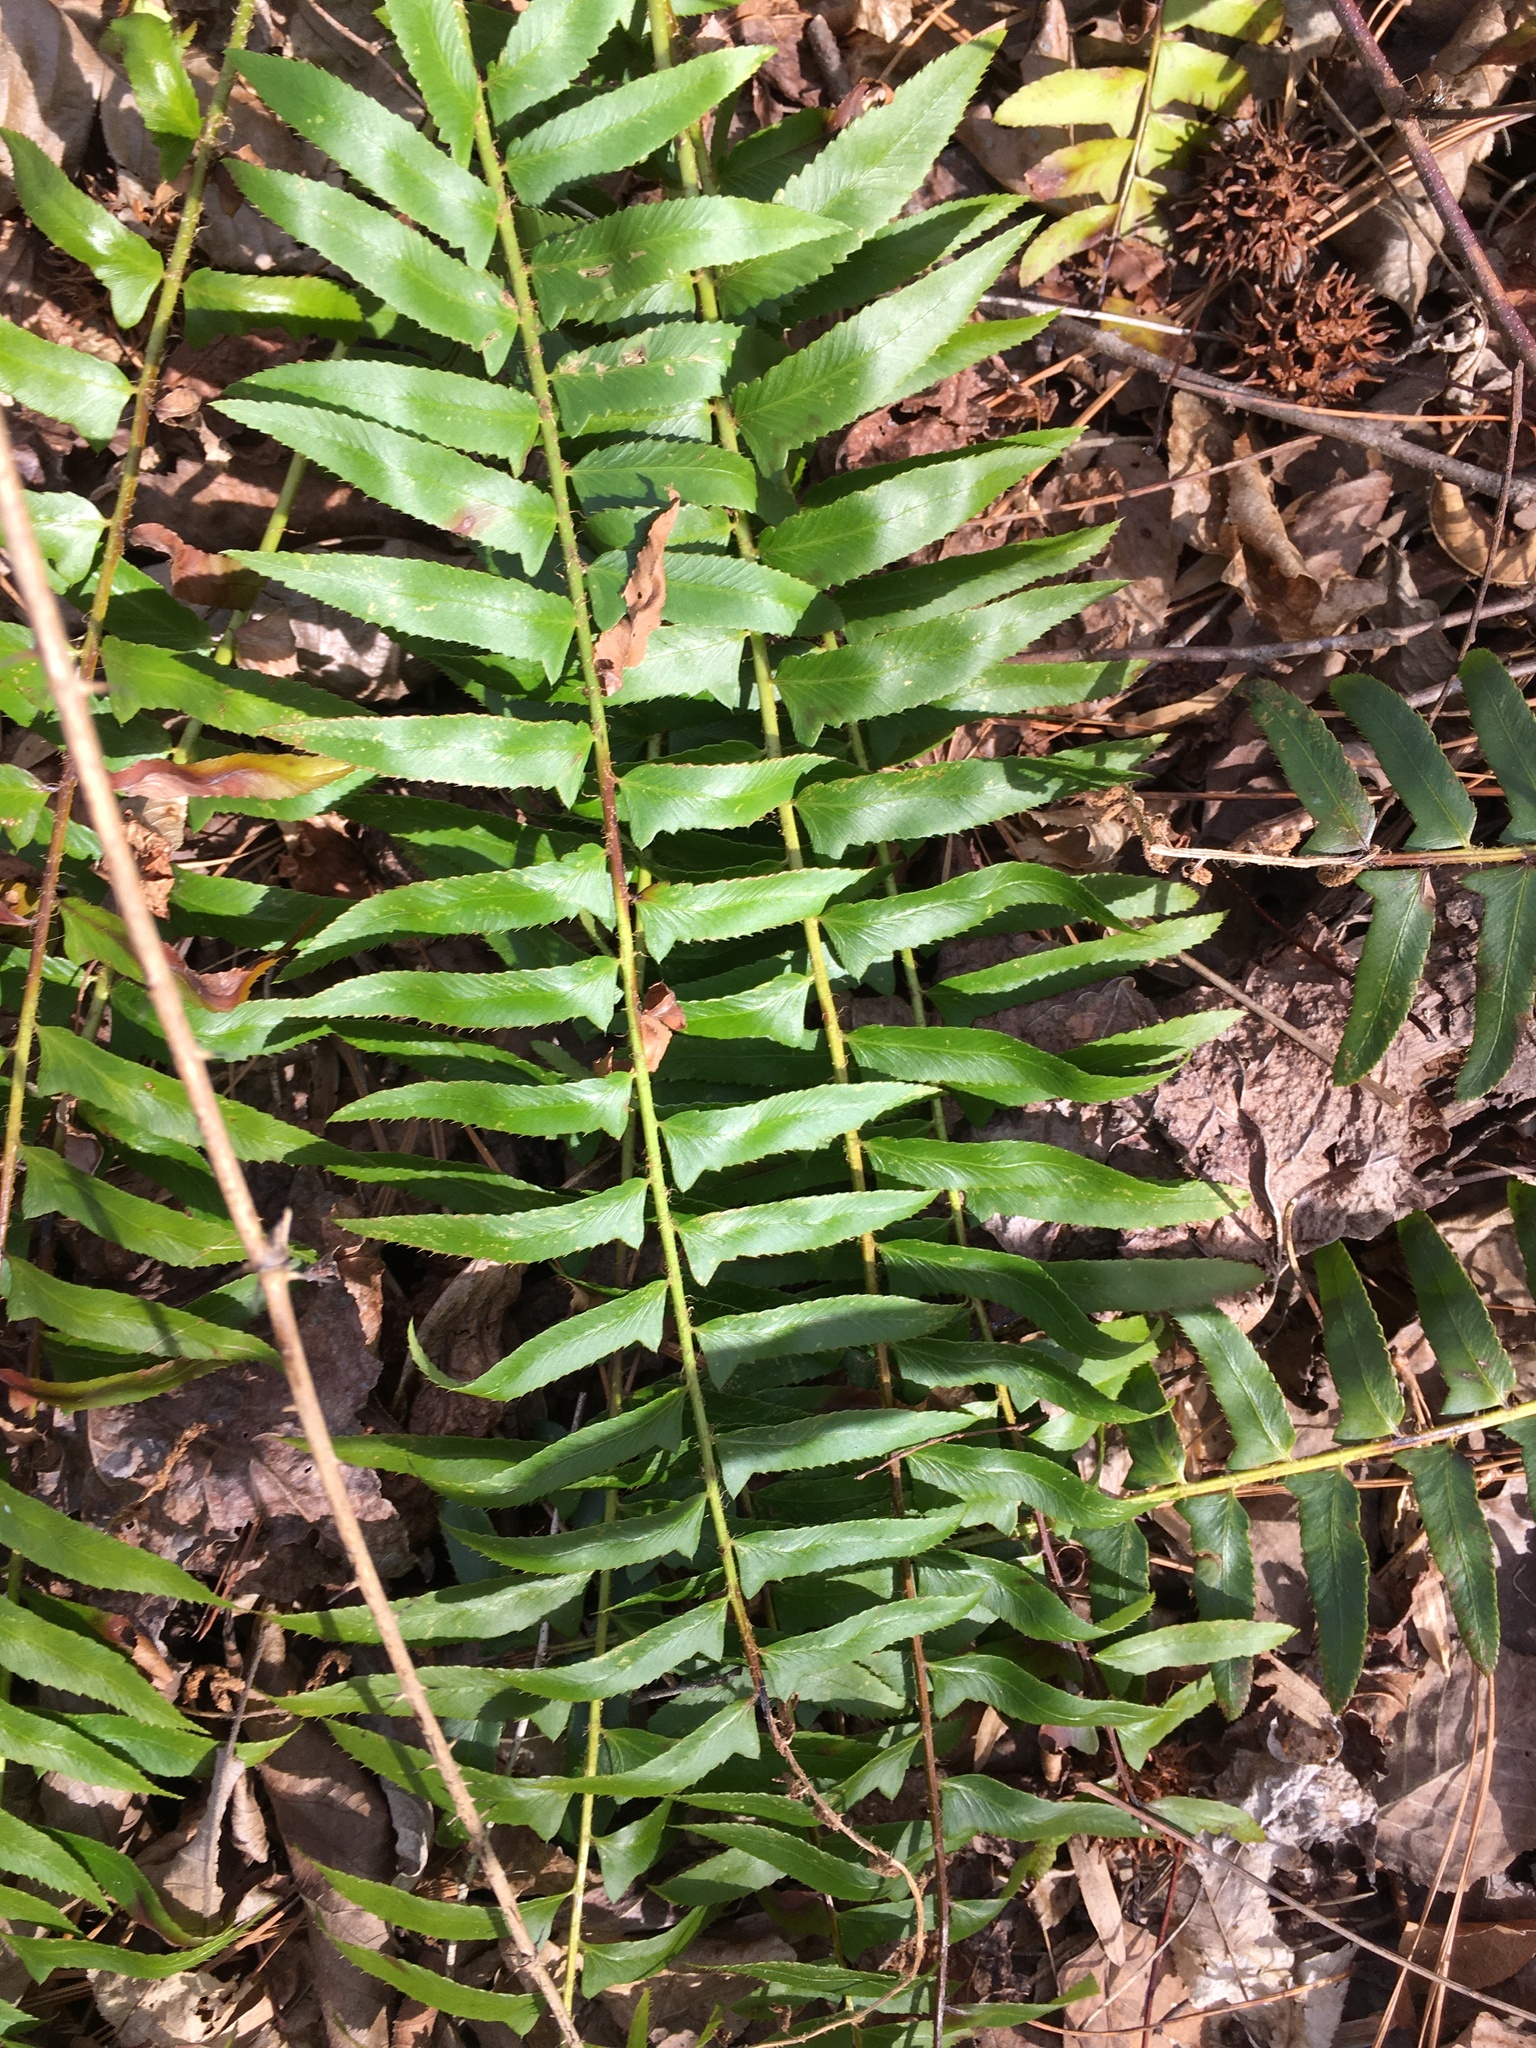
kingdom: Plantae
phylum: Tracheophyta
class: Polypodiopsida
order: Polypodiales
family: Dryopteridaceae
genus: Polystichum
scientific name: Polystichum acrostichoides
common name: Christmas fern
